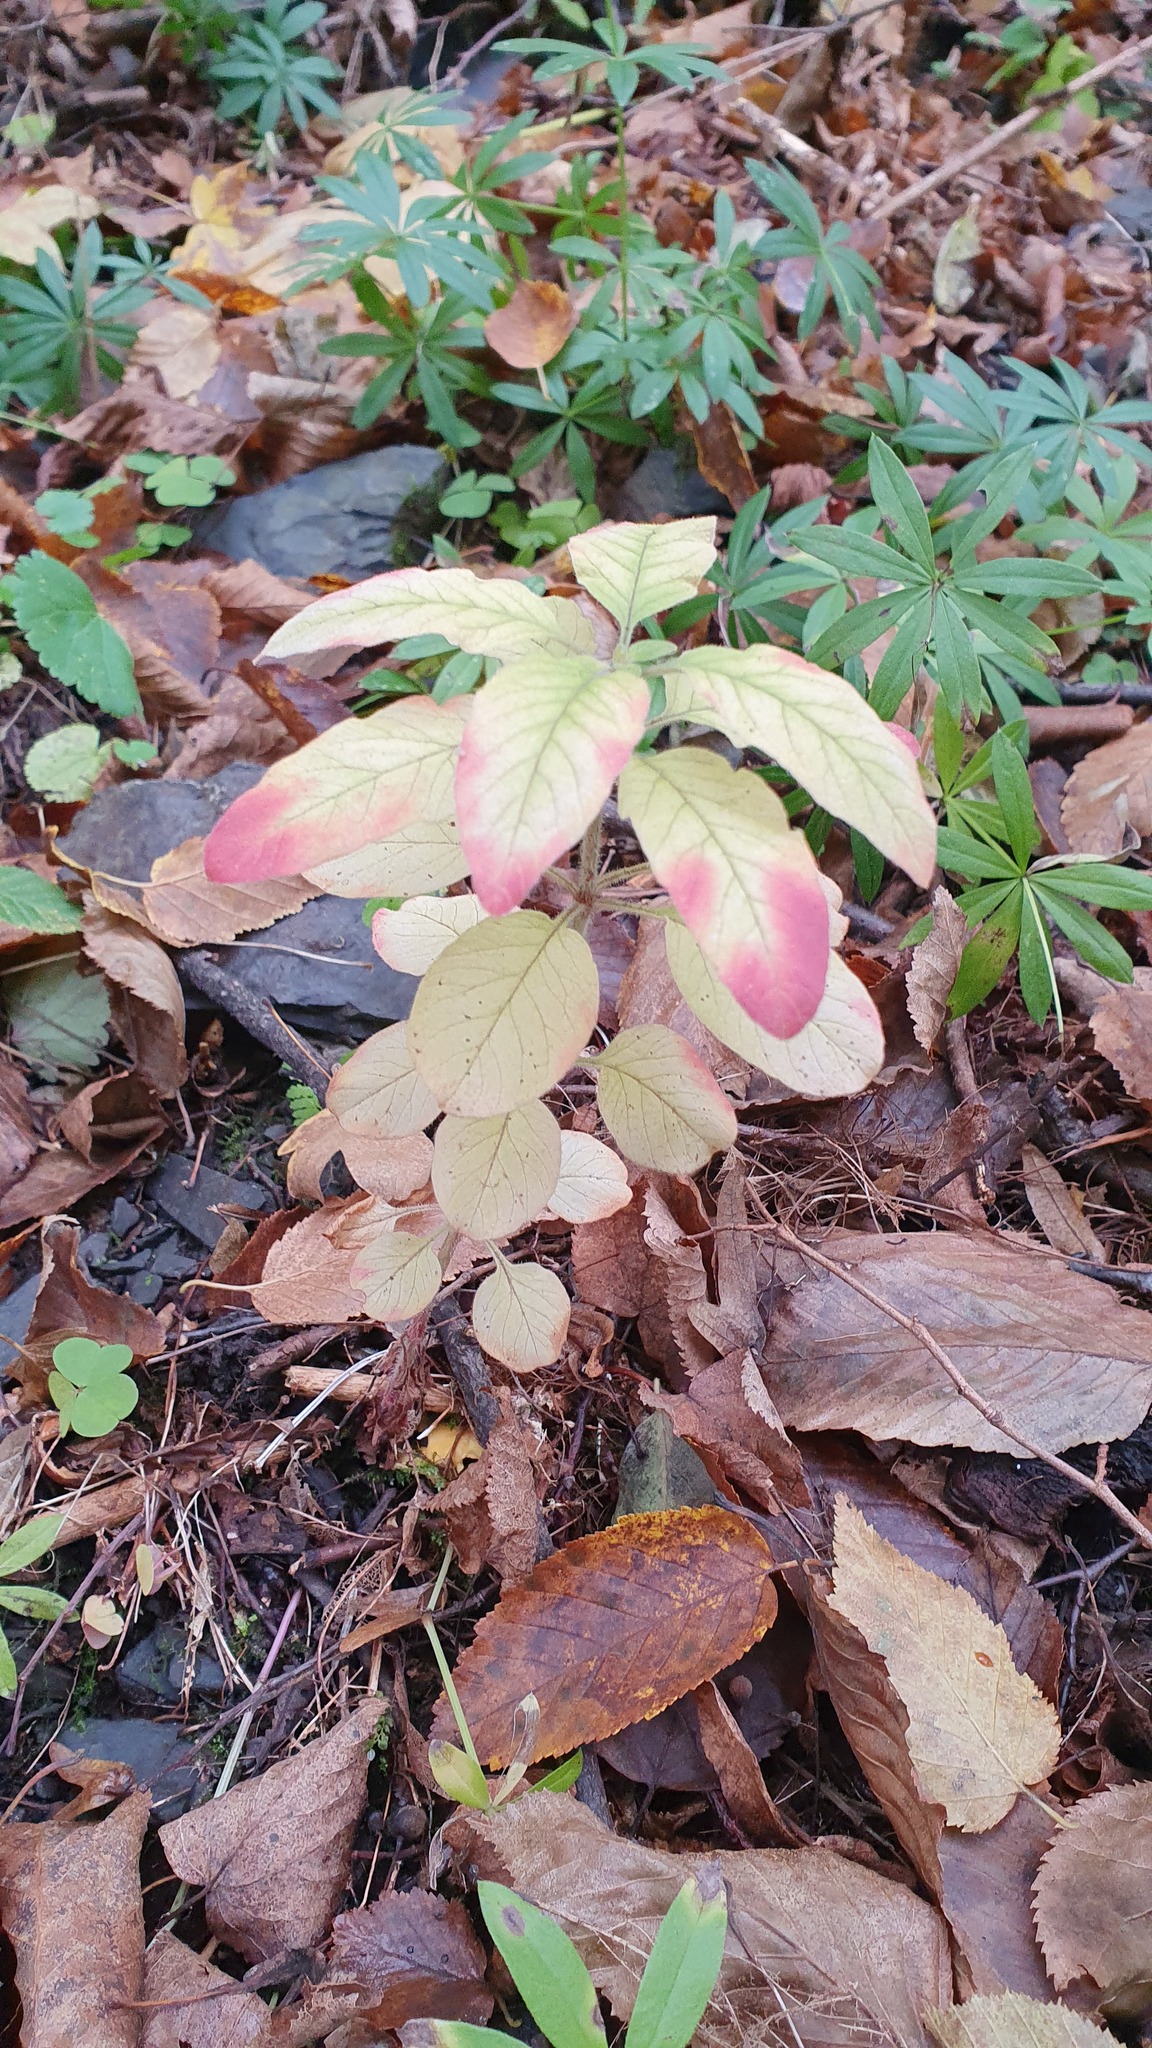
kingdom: Plantae
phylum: Tracheophyta
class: Magnoliopsida
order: Ericales
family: Primulaceae
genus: Lysimachia
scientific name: Lysimachia verticillaris
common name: Yellow loosestrife
